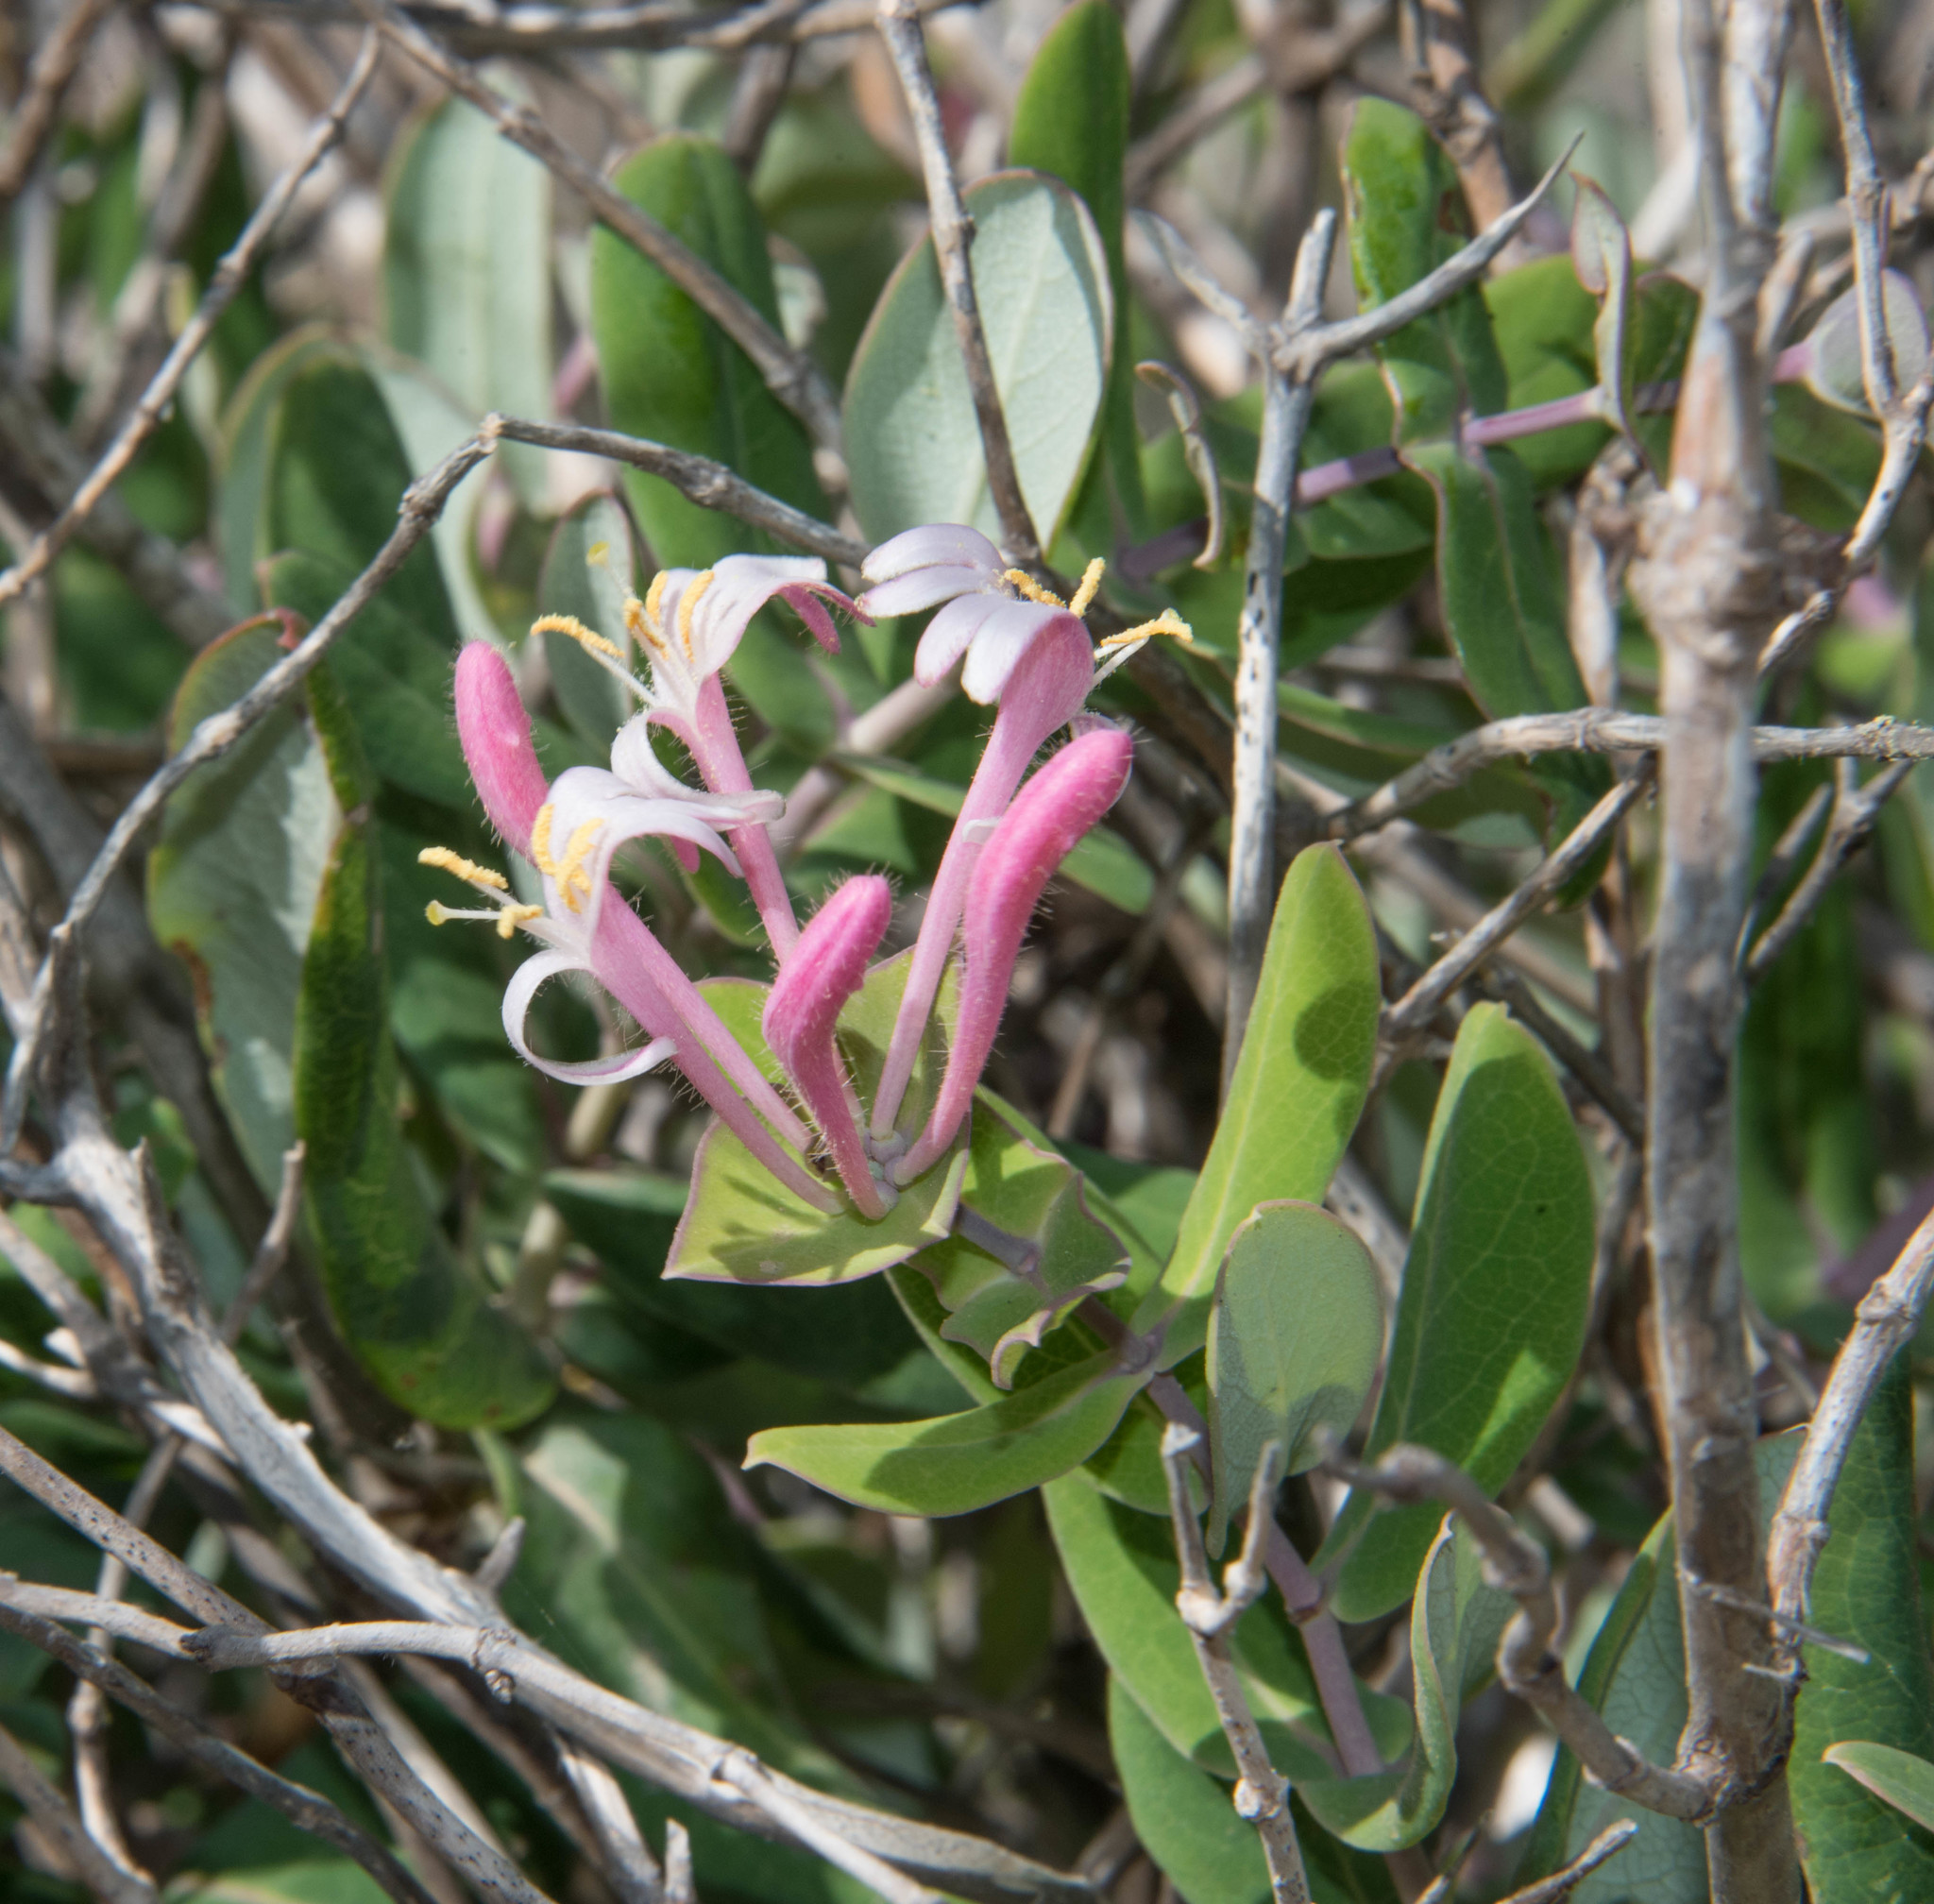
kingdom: Plantae
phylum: Tracheophyta
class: Magnoliopsida
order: Dipsacales
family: Caprifoliaceae
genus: Lonicera
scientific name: Lonicera implexa
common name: Minorca honeysuckle
